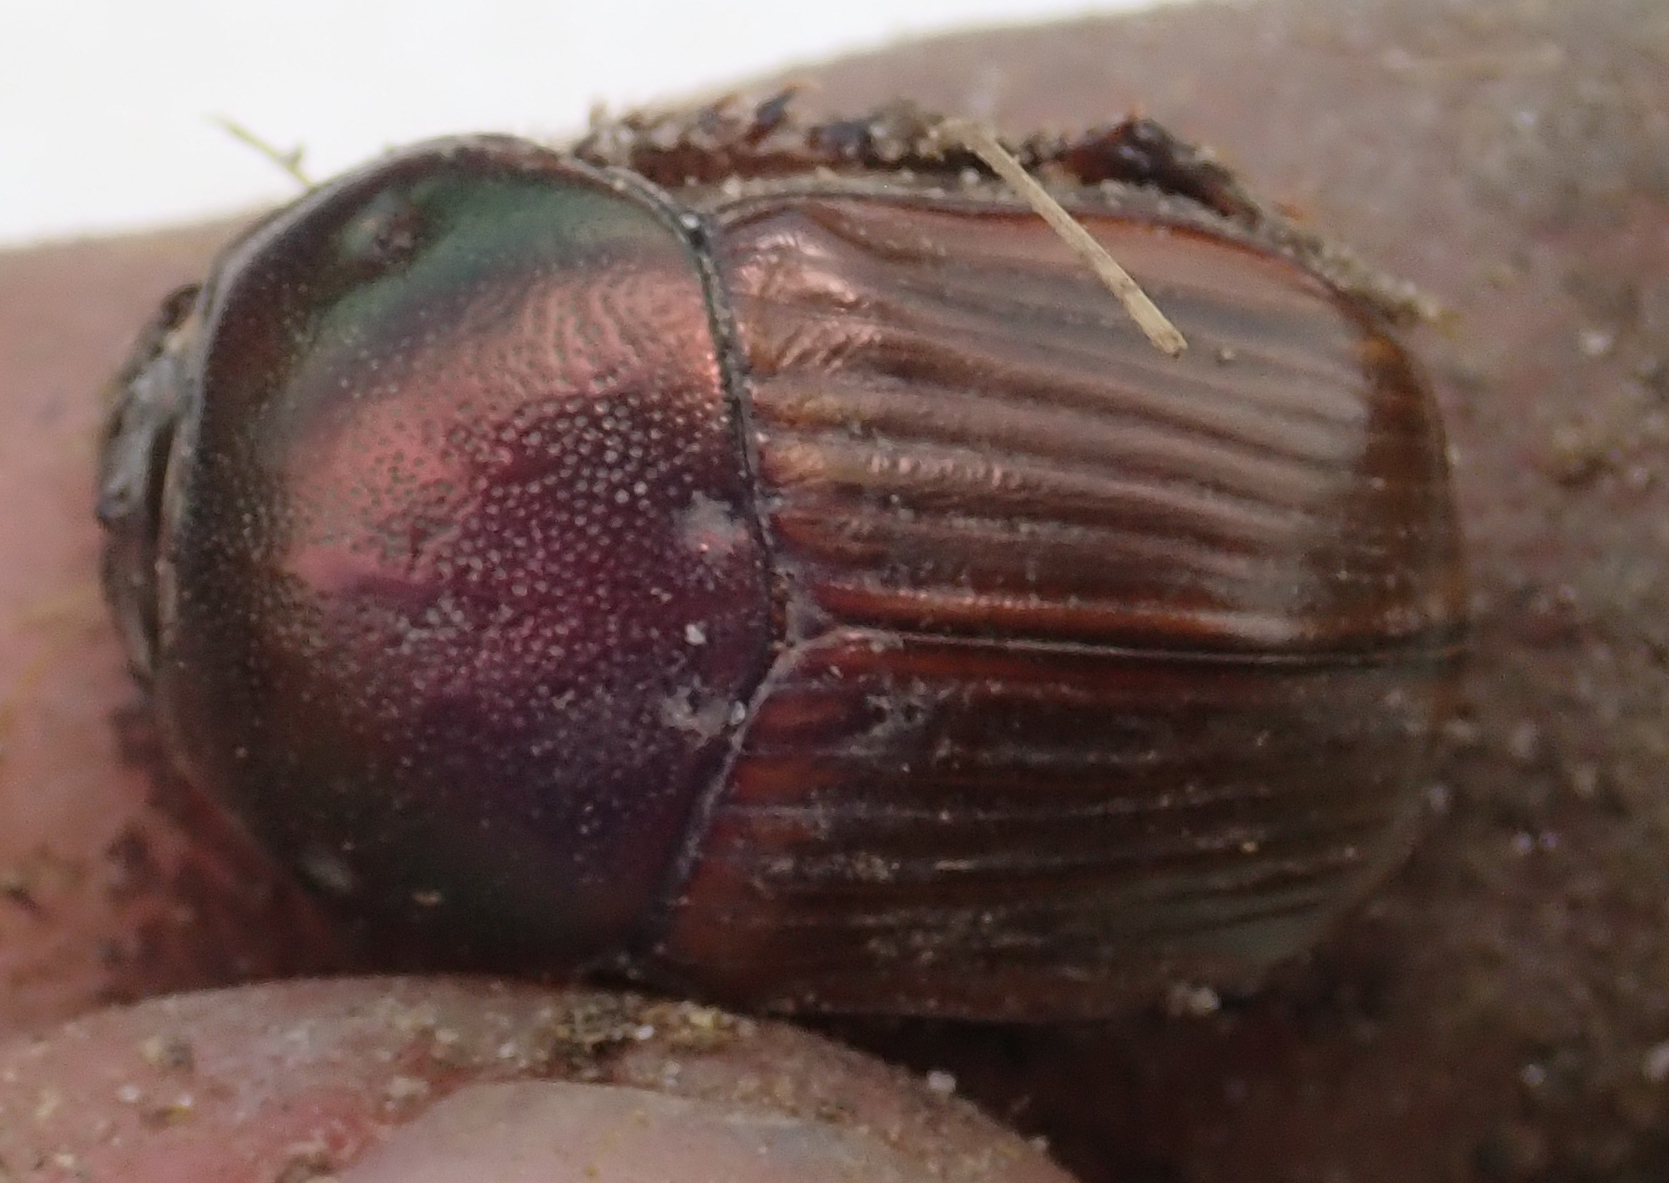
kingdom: Animalia
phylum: Arthropoda
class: Insecta
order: Coleoptera
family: Scarabaeidae
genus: Onitis
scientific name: Onitis alexis
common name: Alexis dung beetle
